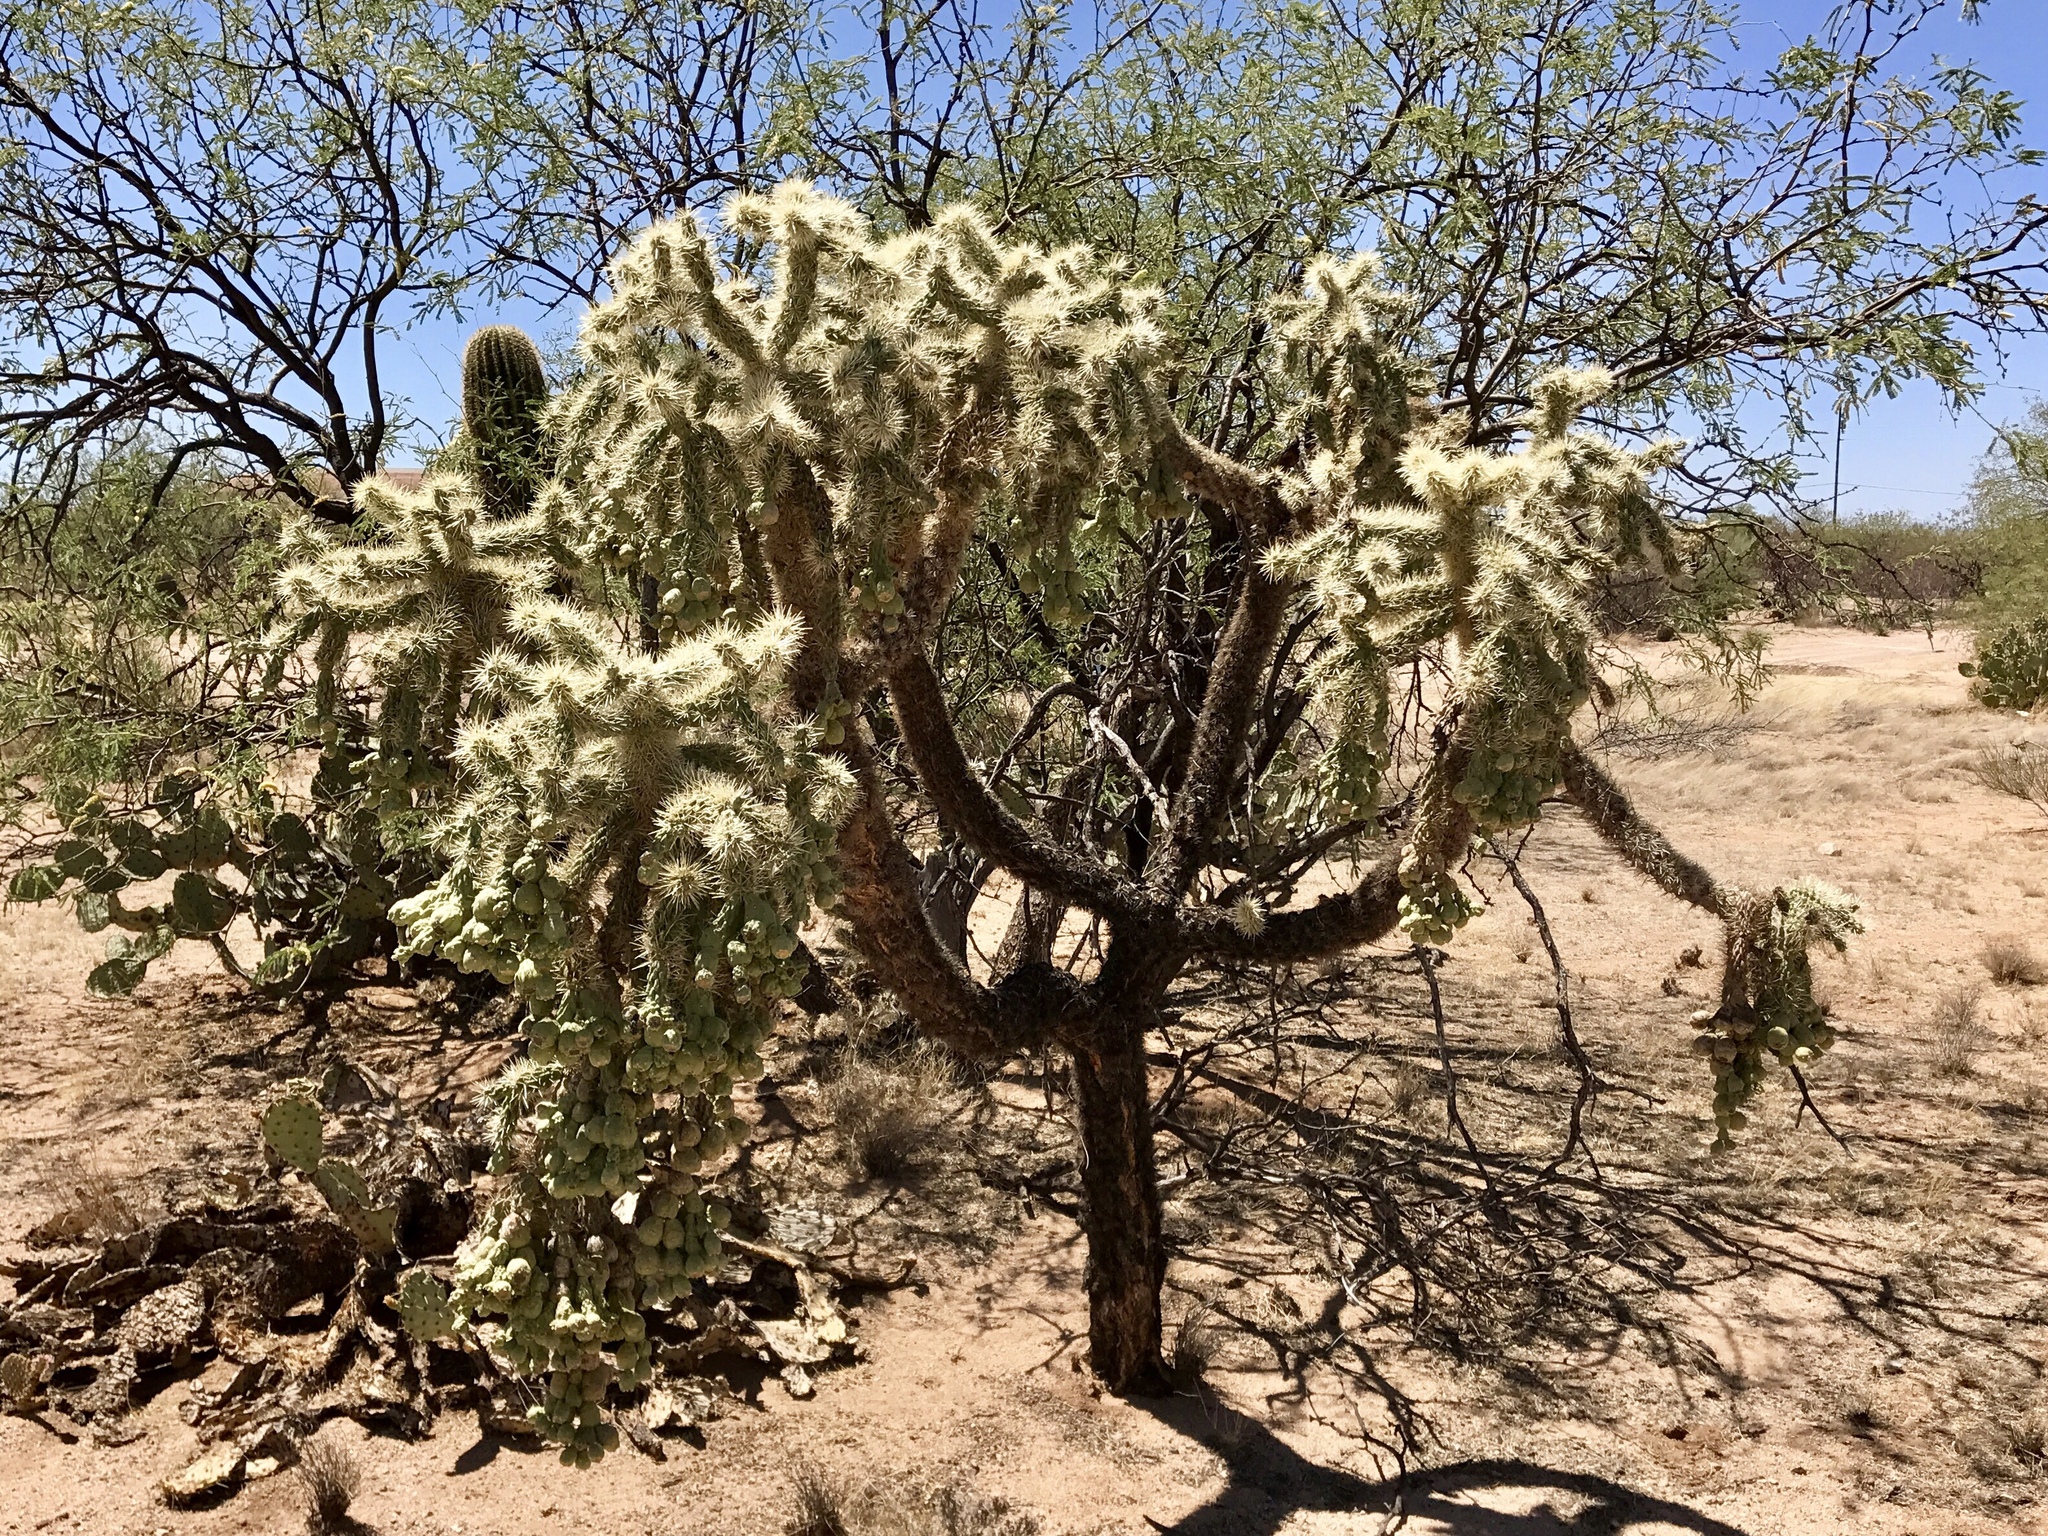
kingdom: Plantae
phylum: Tracheophyta
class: Magnoliopsida
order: Caryophyllales
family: Cactaceae
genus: Cylindropuntia
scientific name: Cylindropuntia fulgida
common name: Jumping cholla
